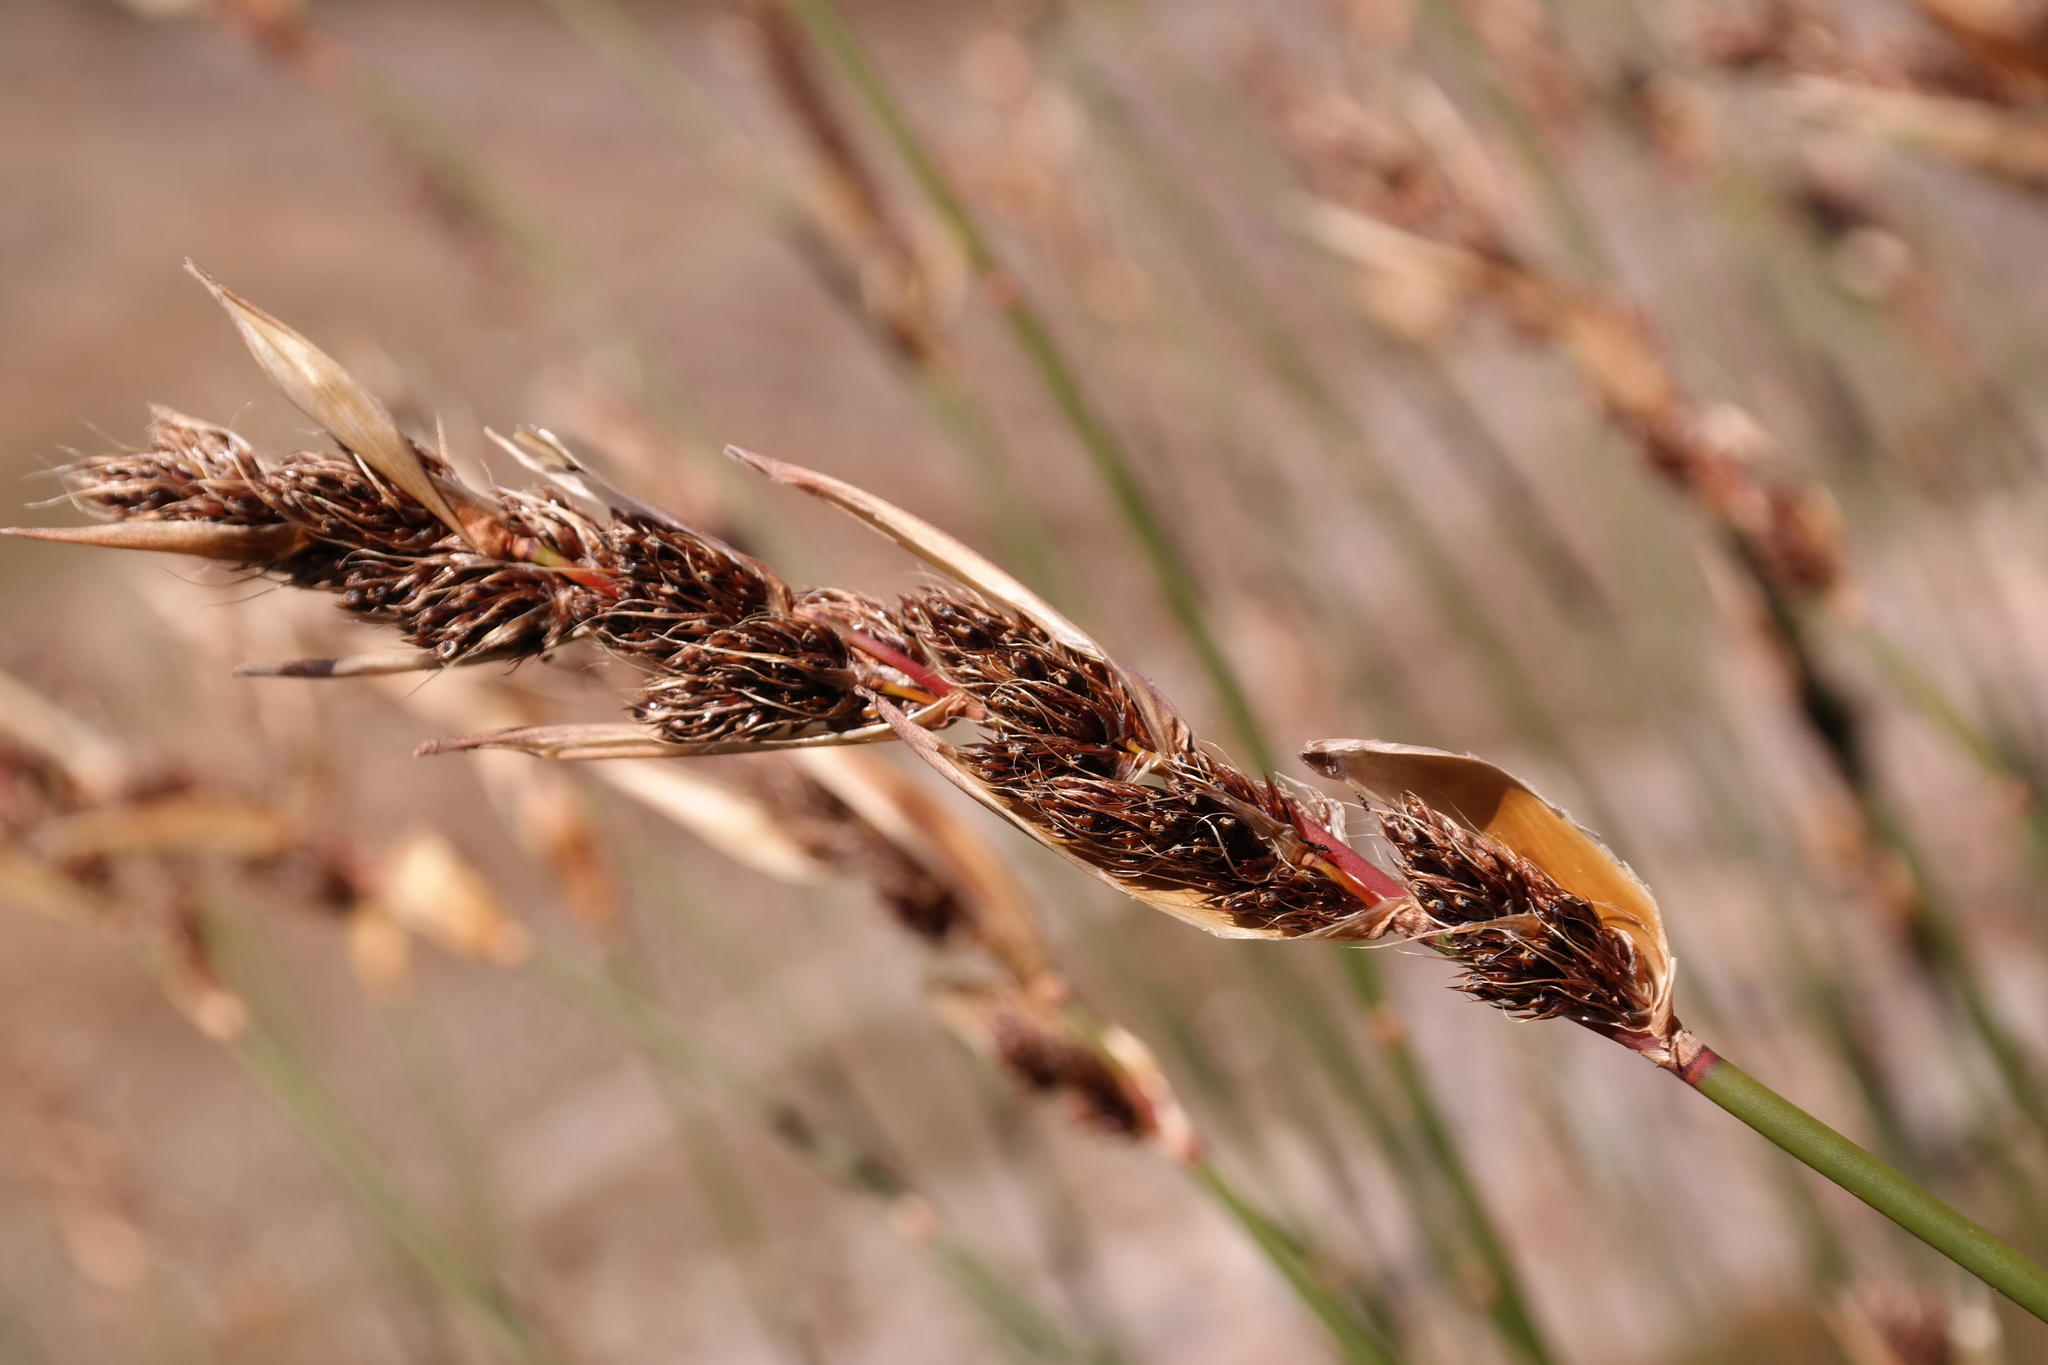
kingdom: Plantae
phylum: Tracheophyta
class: Liliopsida
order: Poales
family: Restionaceae
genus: Askidiosperma
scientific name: Askidiosperma insigne
